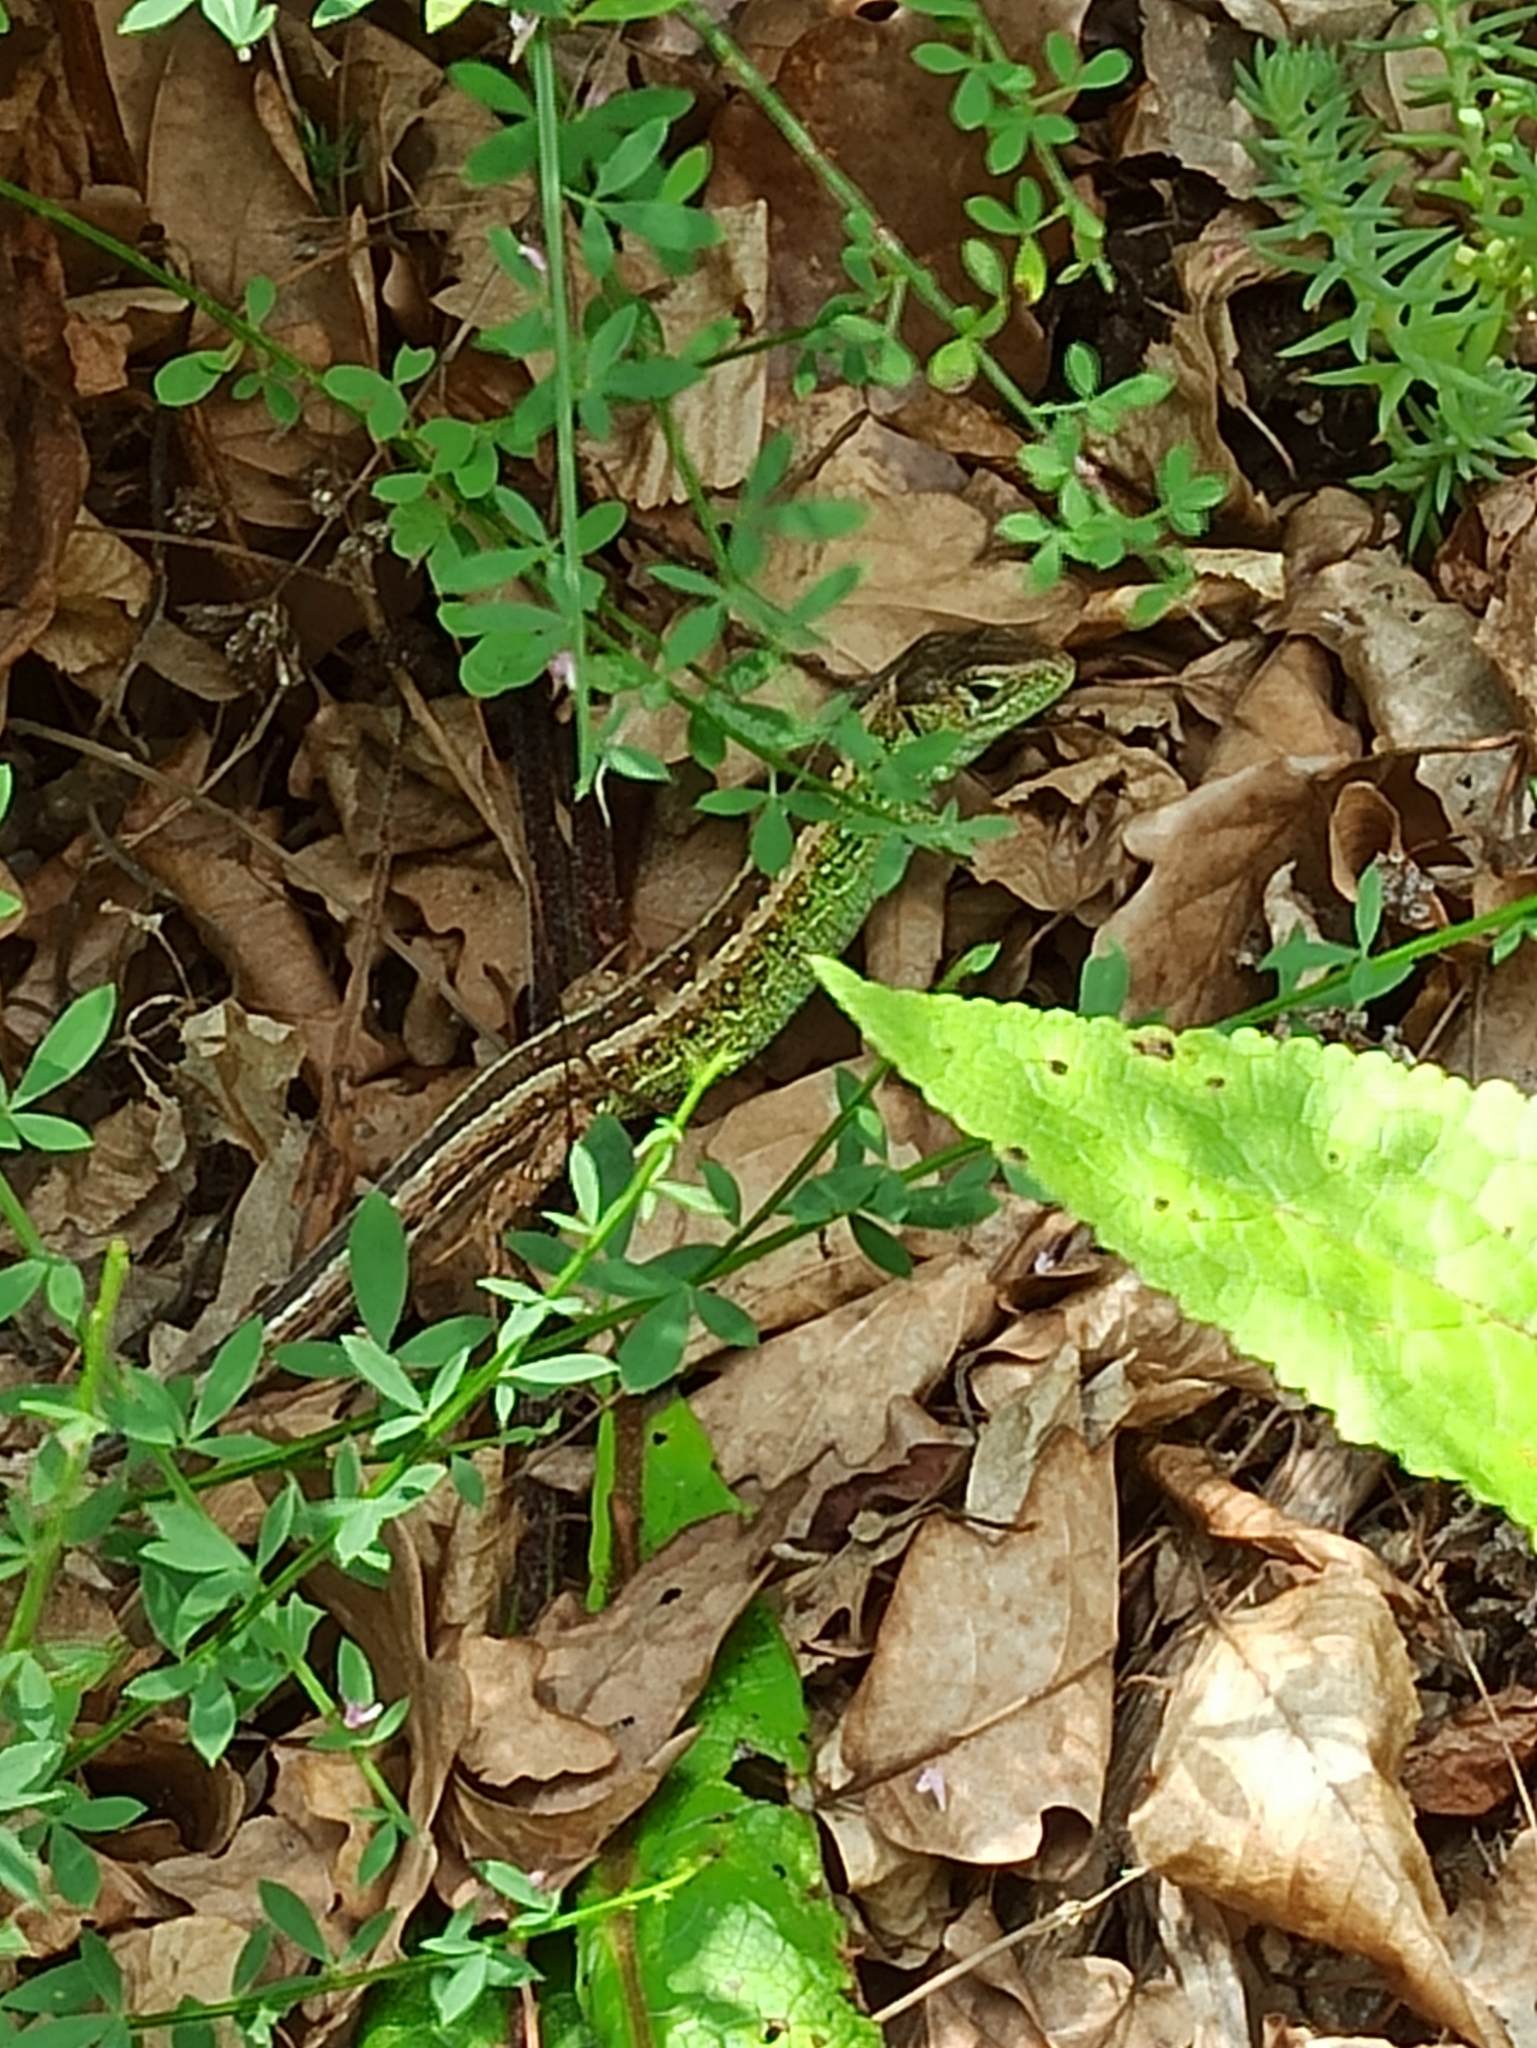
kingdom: Animalia
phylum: Chordata
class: Squamata
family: Lacertidae
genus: Lacerta
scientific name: Lacerta agilis
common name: Sand lizard
